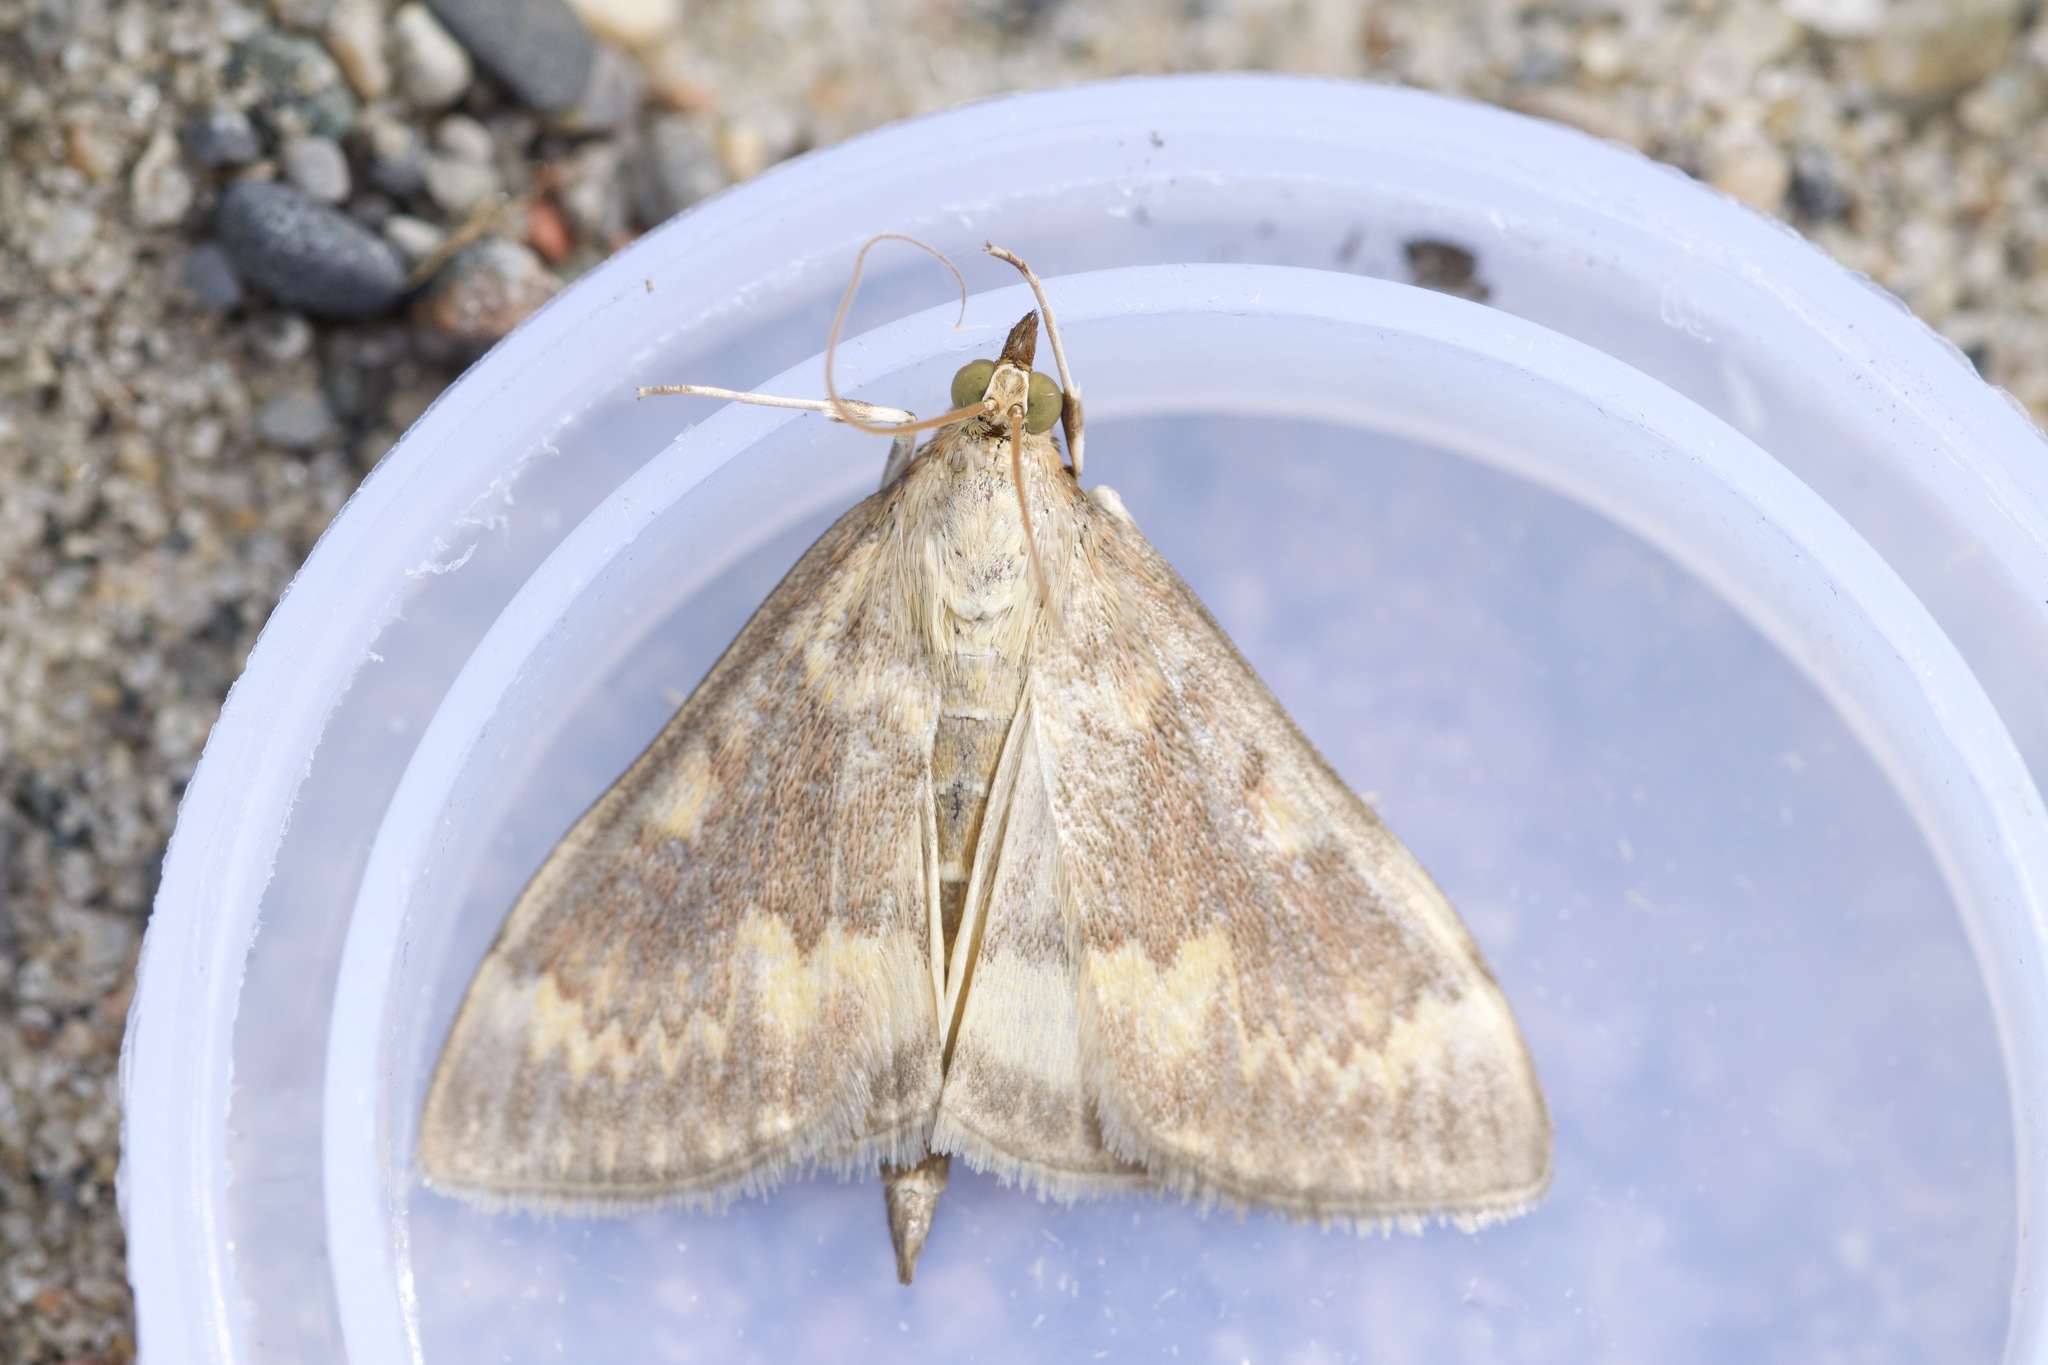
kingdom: Animalia
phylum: Arthropoda
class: Insecta
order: Lepidoptera
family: Crambidae
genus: Ostrinia
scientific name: Ostrinia nubilalis
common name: European corn borer
